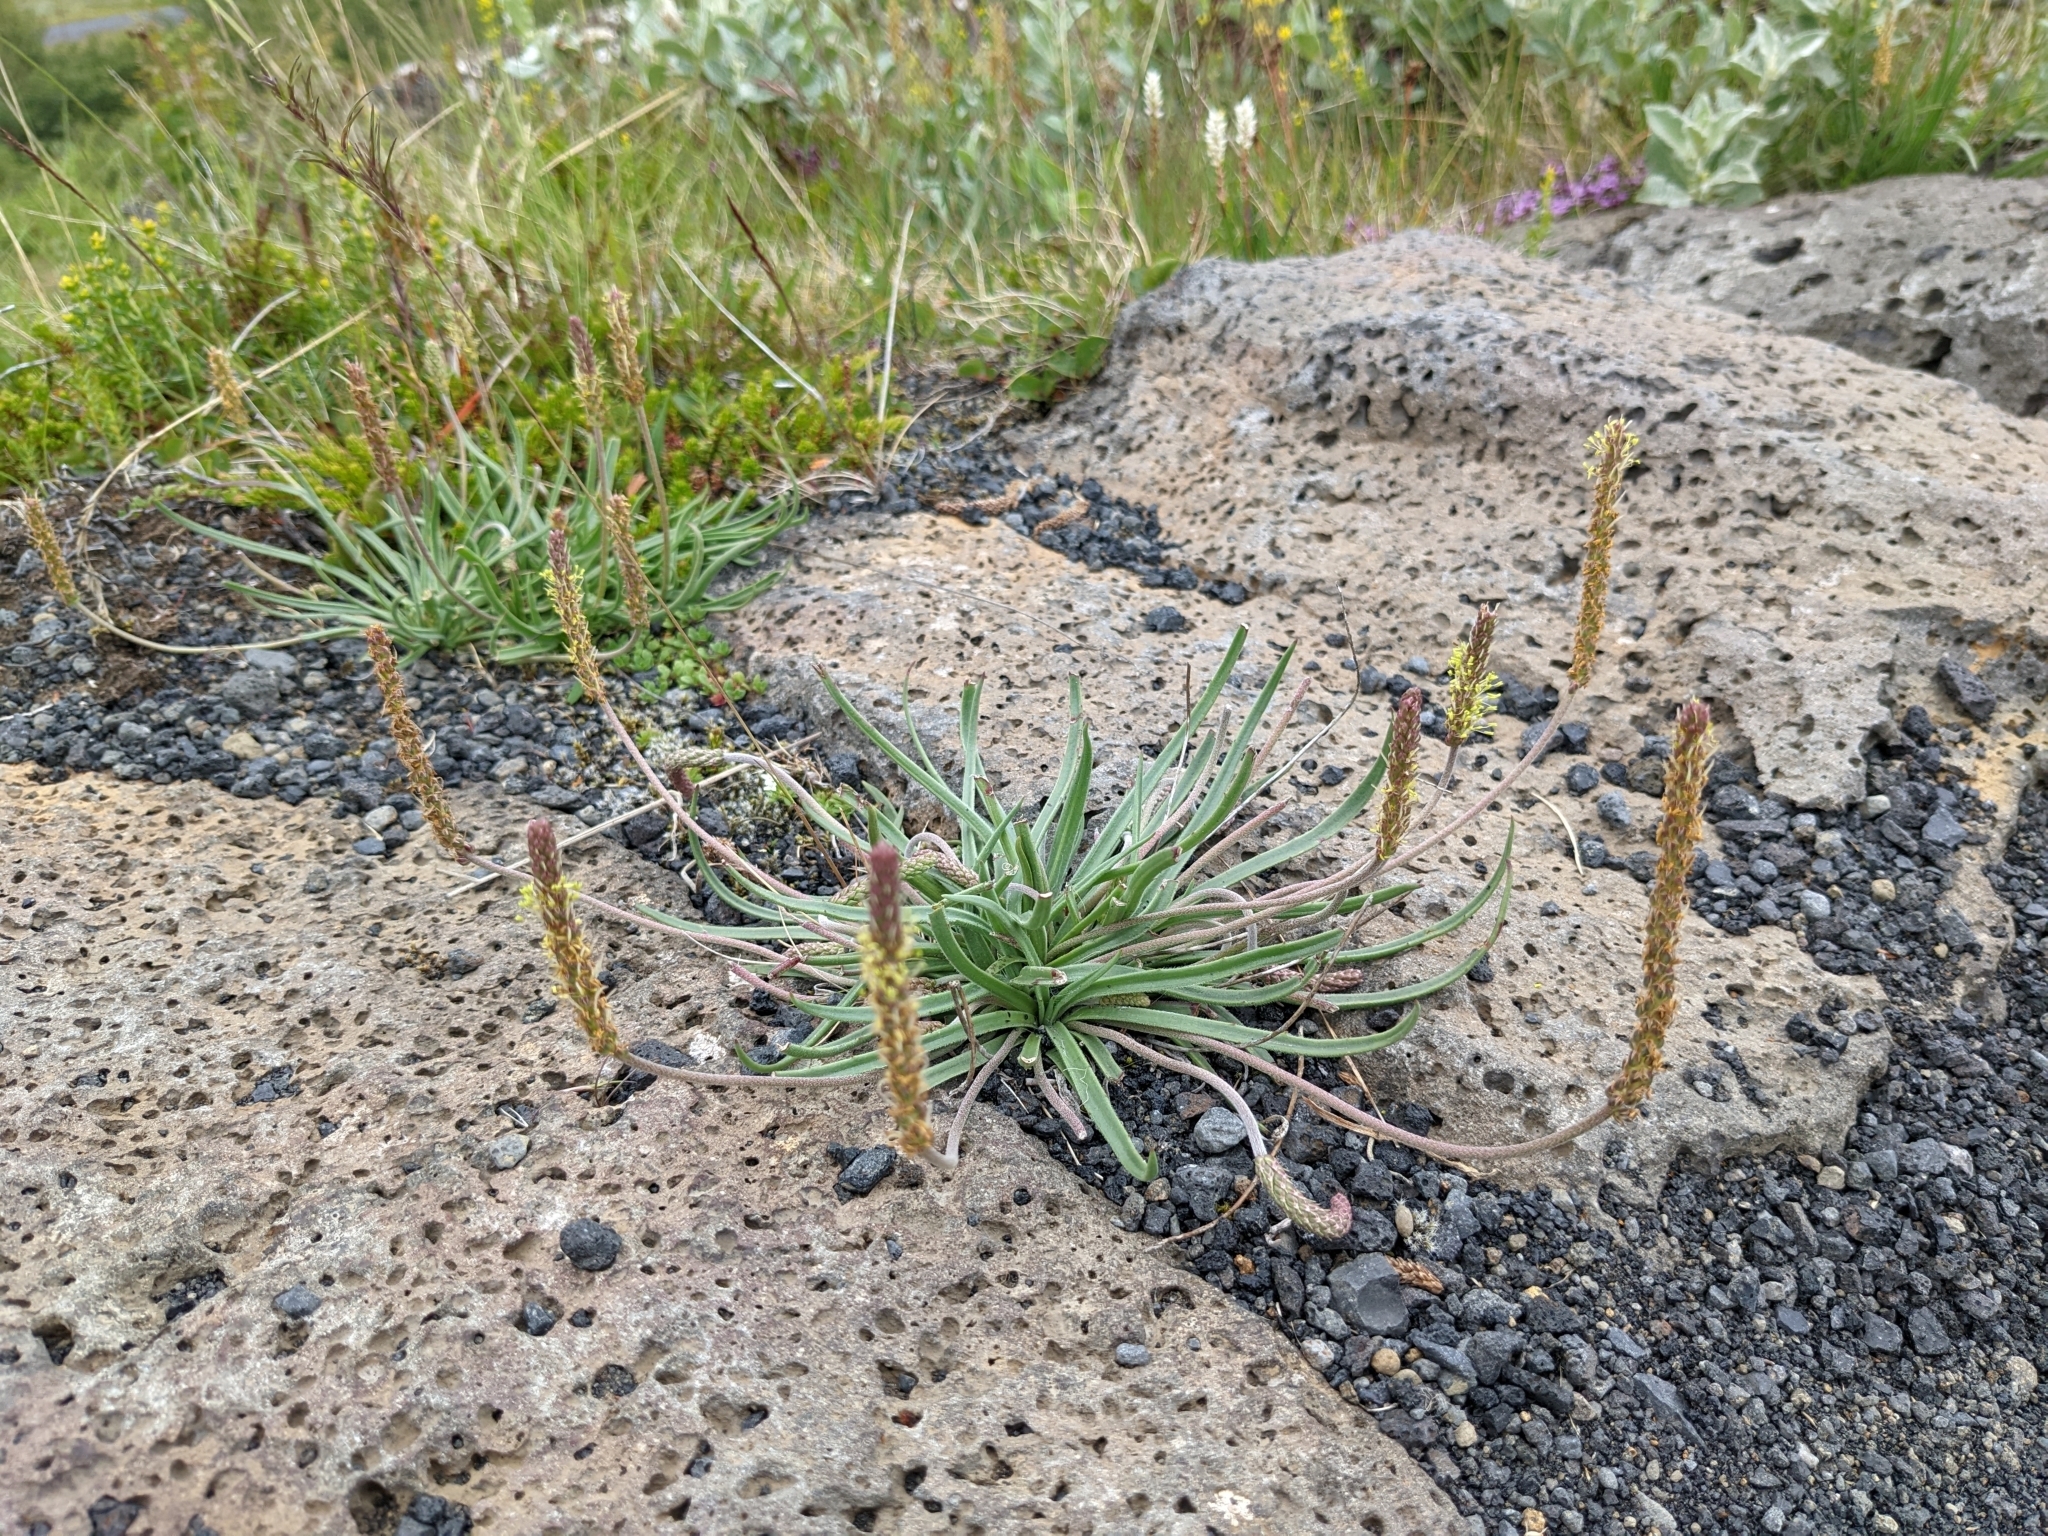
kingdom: Plantae
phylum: Tracheophyta
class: Magnoliopsida
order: Lamiales
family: Plantaginaceae
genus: Plantago
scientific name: Plantago maritima
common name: Sea plantain
